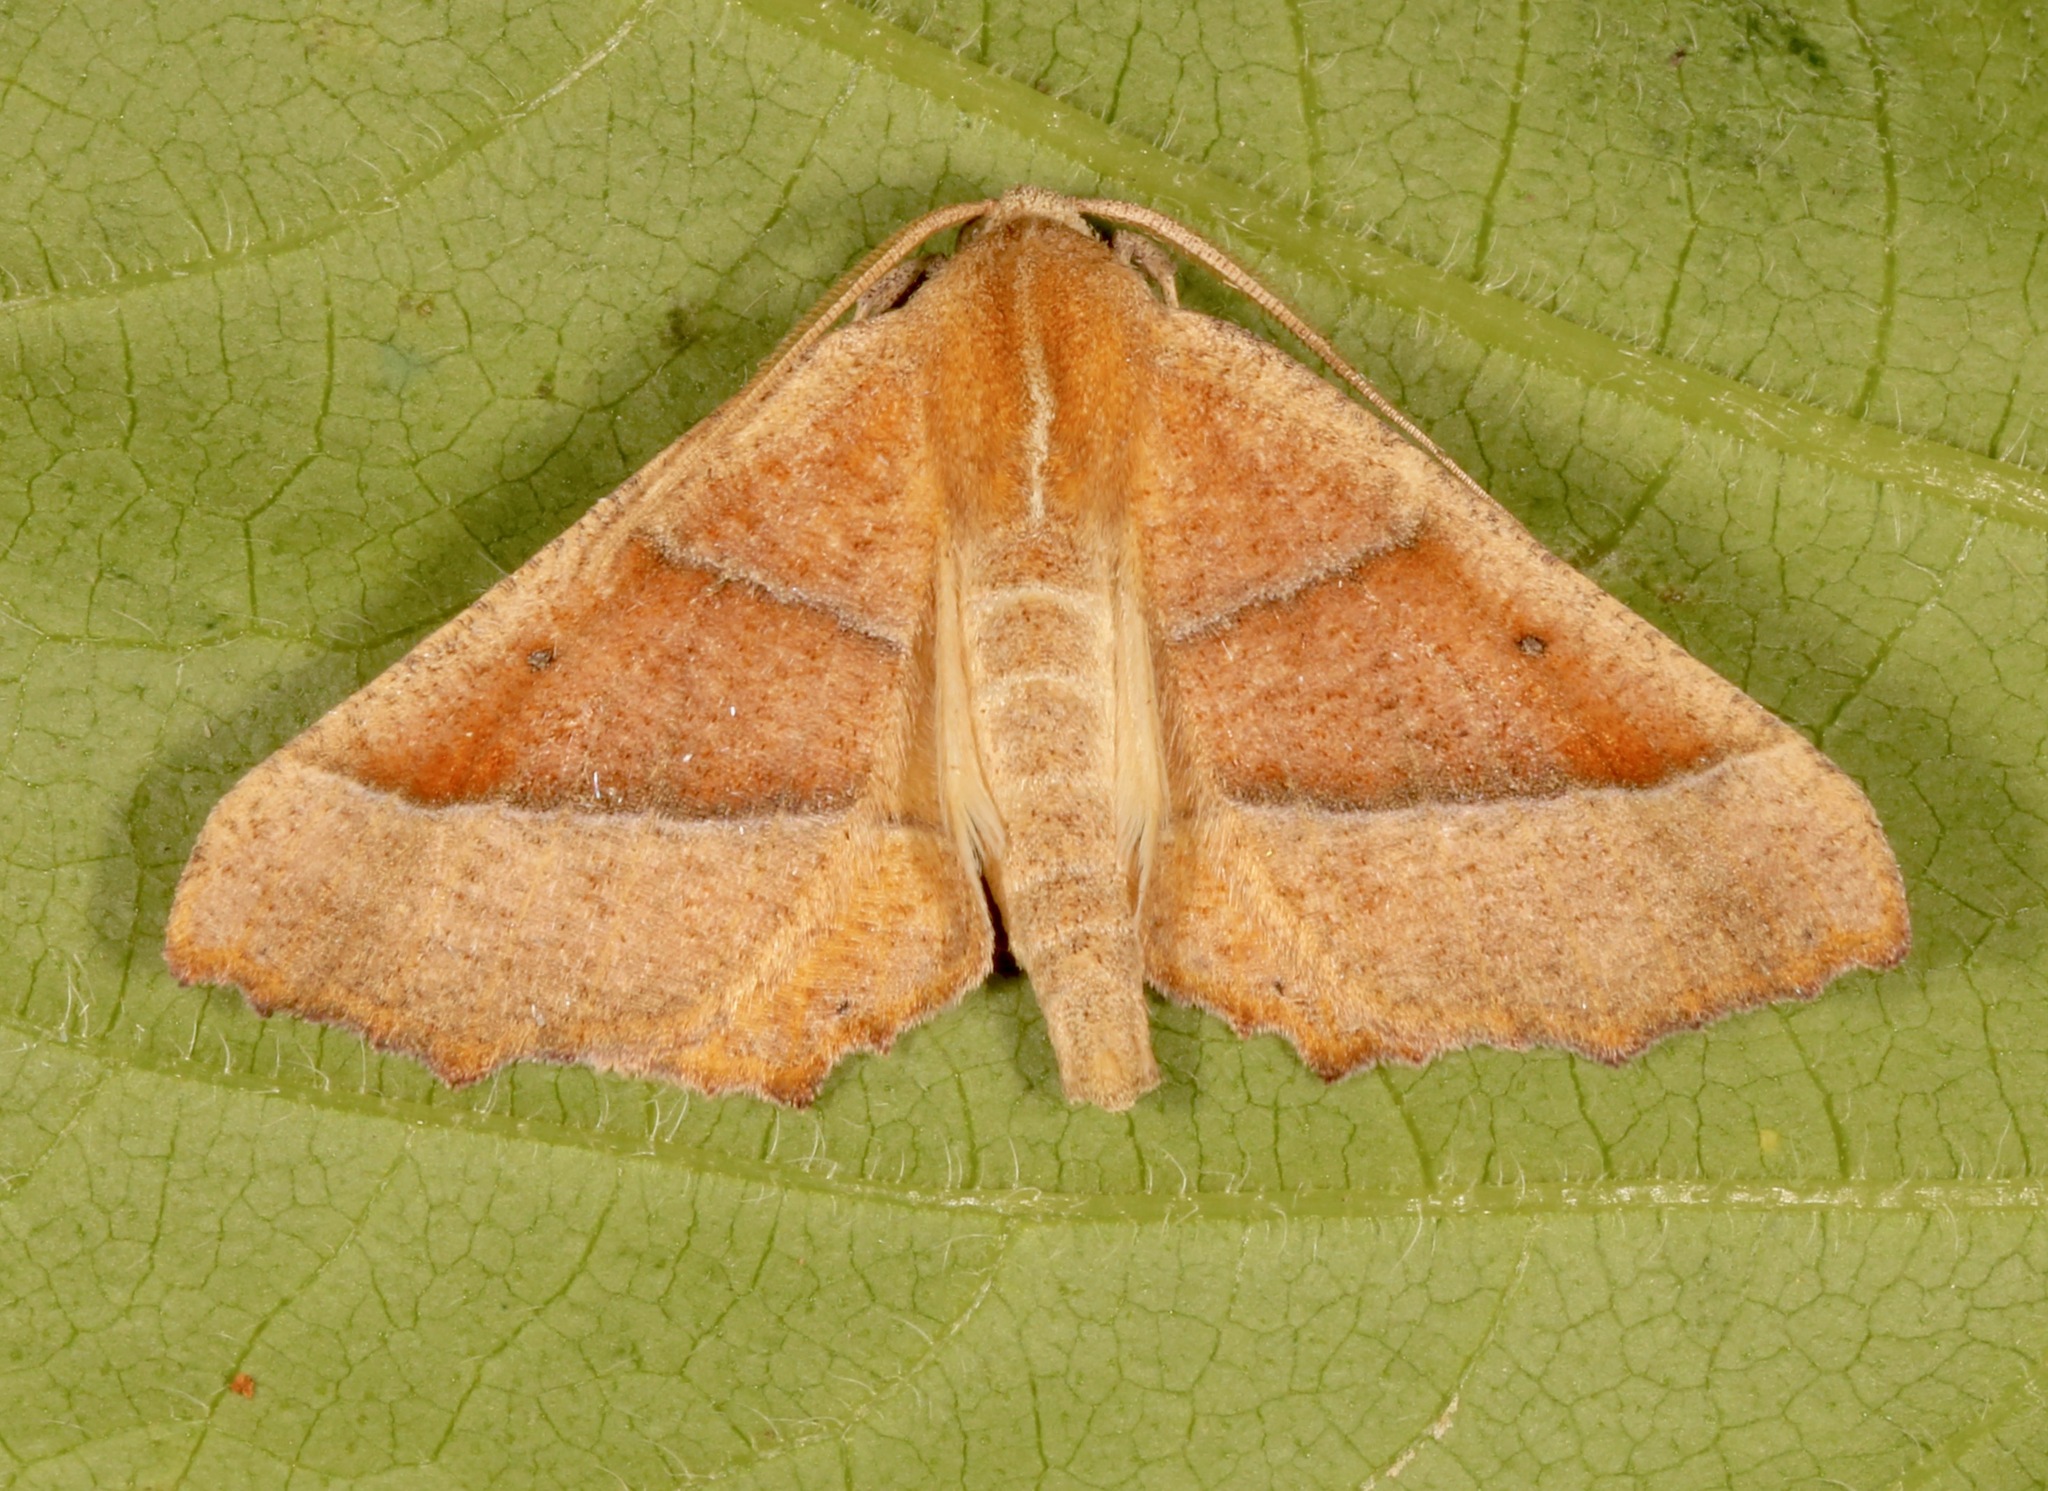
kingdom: Animalia
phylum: Arthropoda
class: Insecta
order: Lepidoptera
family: Geometridae
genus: Pero
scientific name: Pero radiosaria
